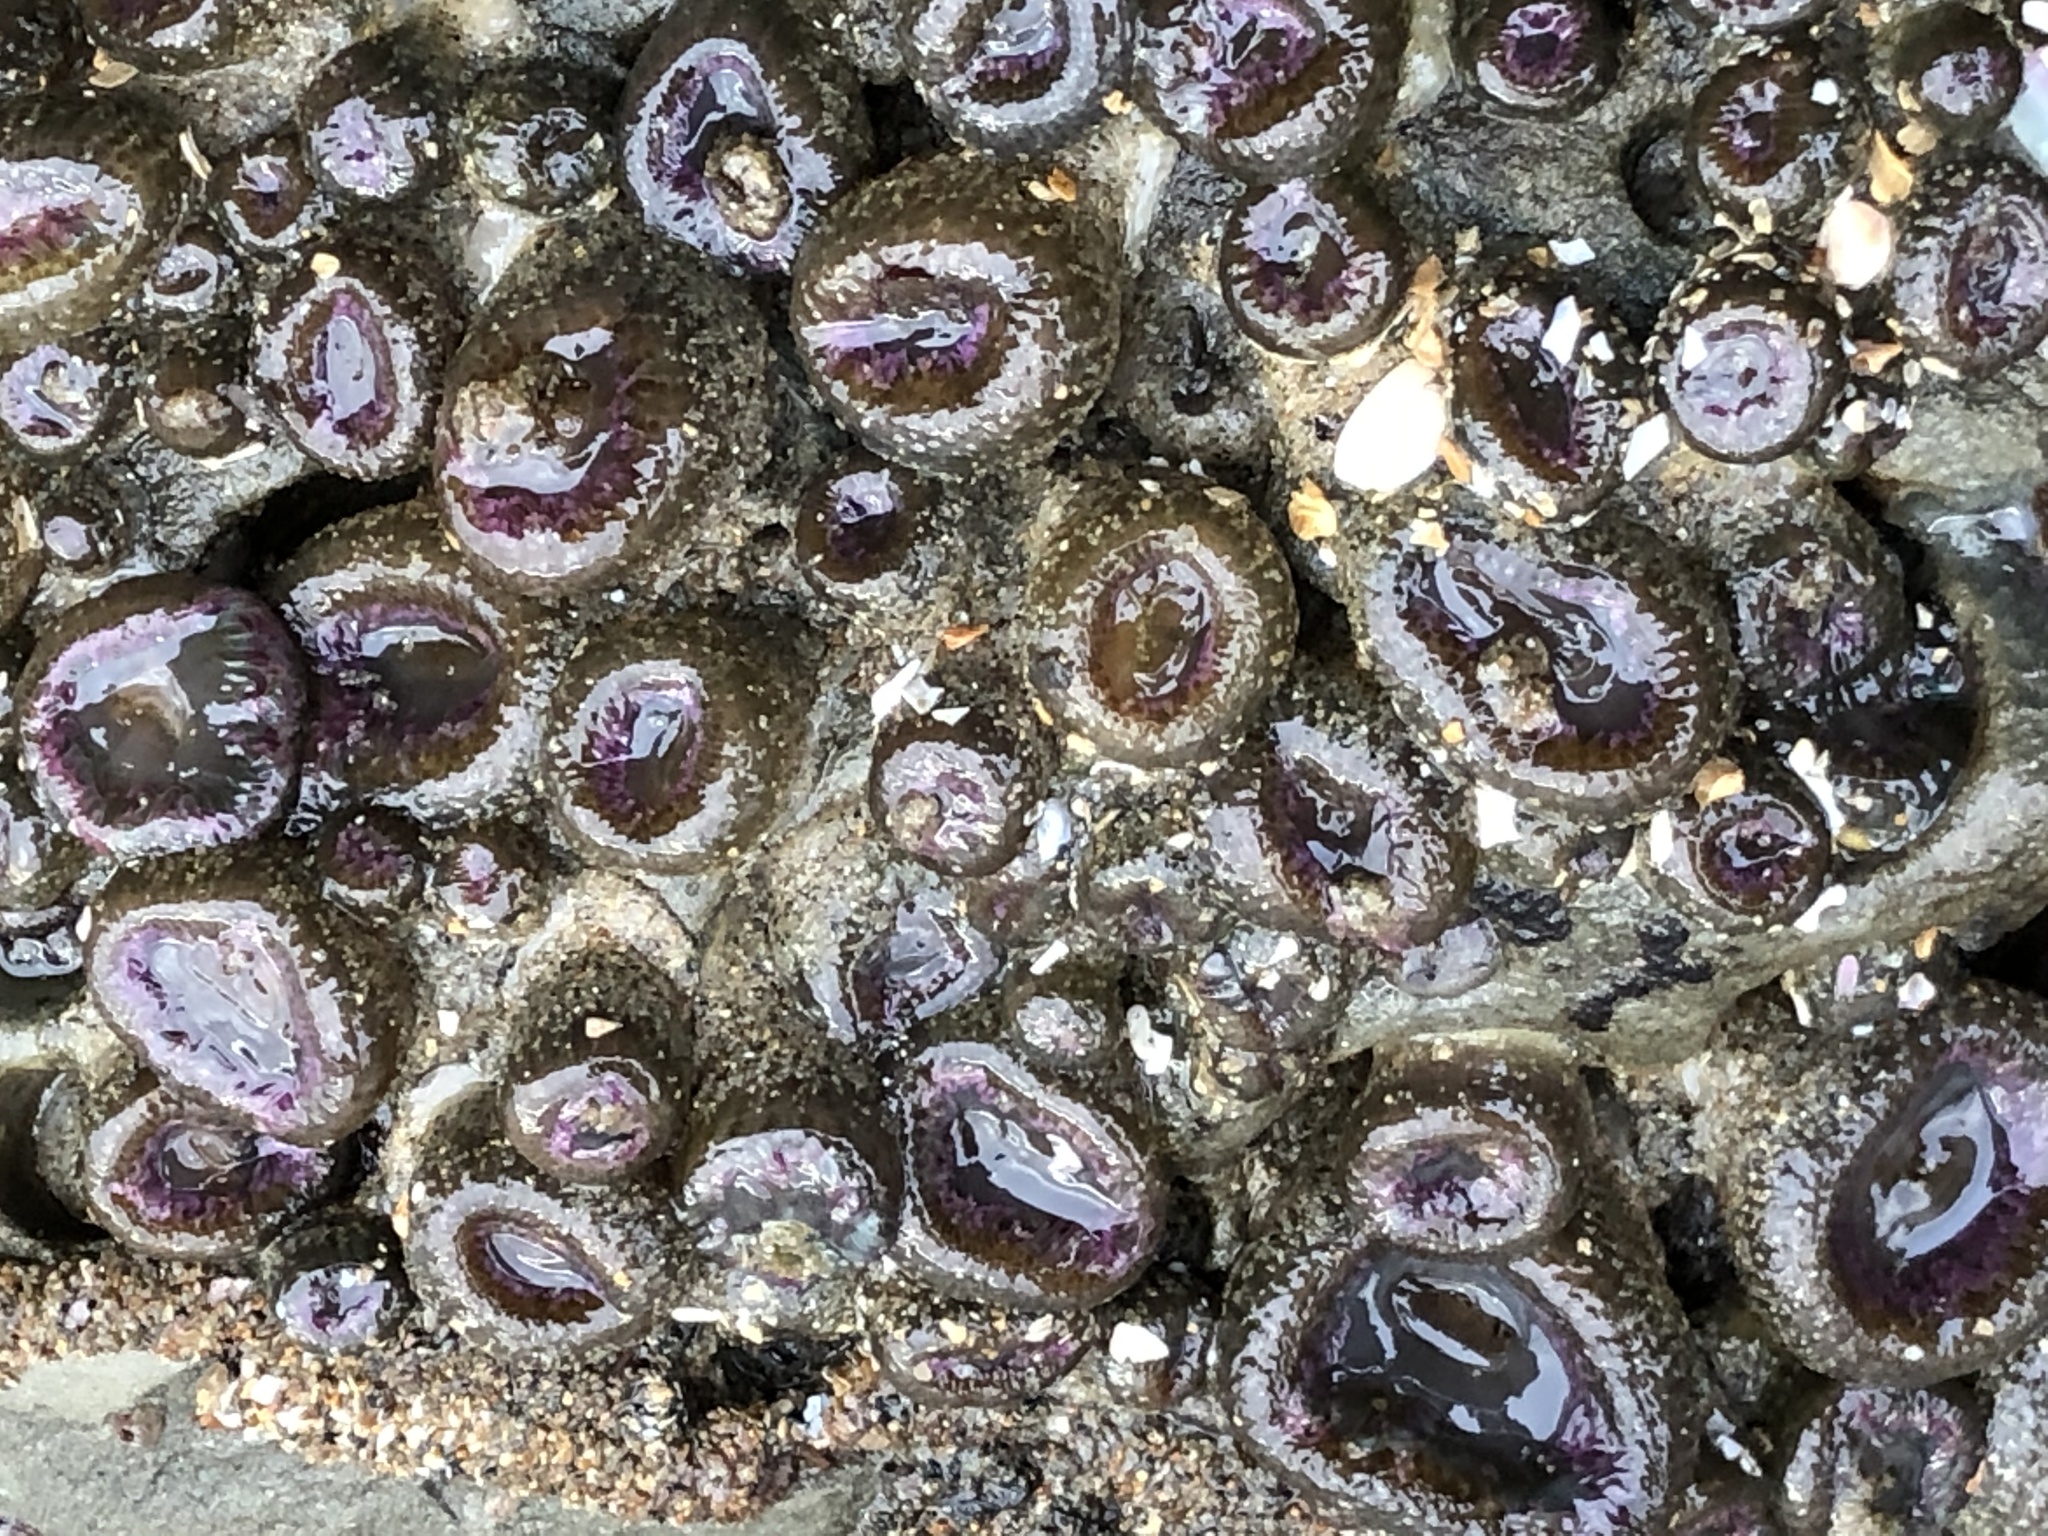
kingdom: Animalia
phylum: Cnidaria
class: Anthozoa
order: Actiniaria
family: Actiniidae
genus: Anthopleura
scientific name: Anthopleura elegantissima
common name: Clonal anemone
